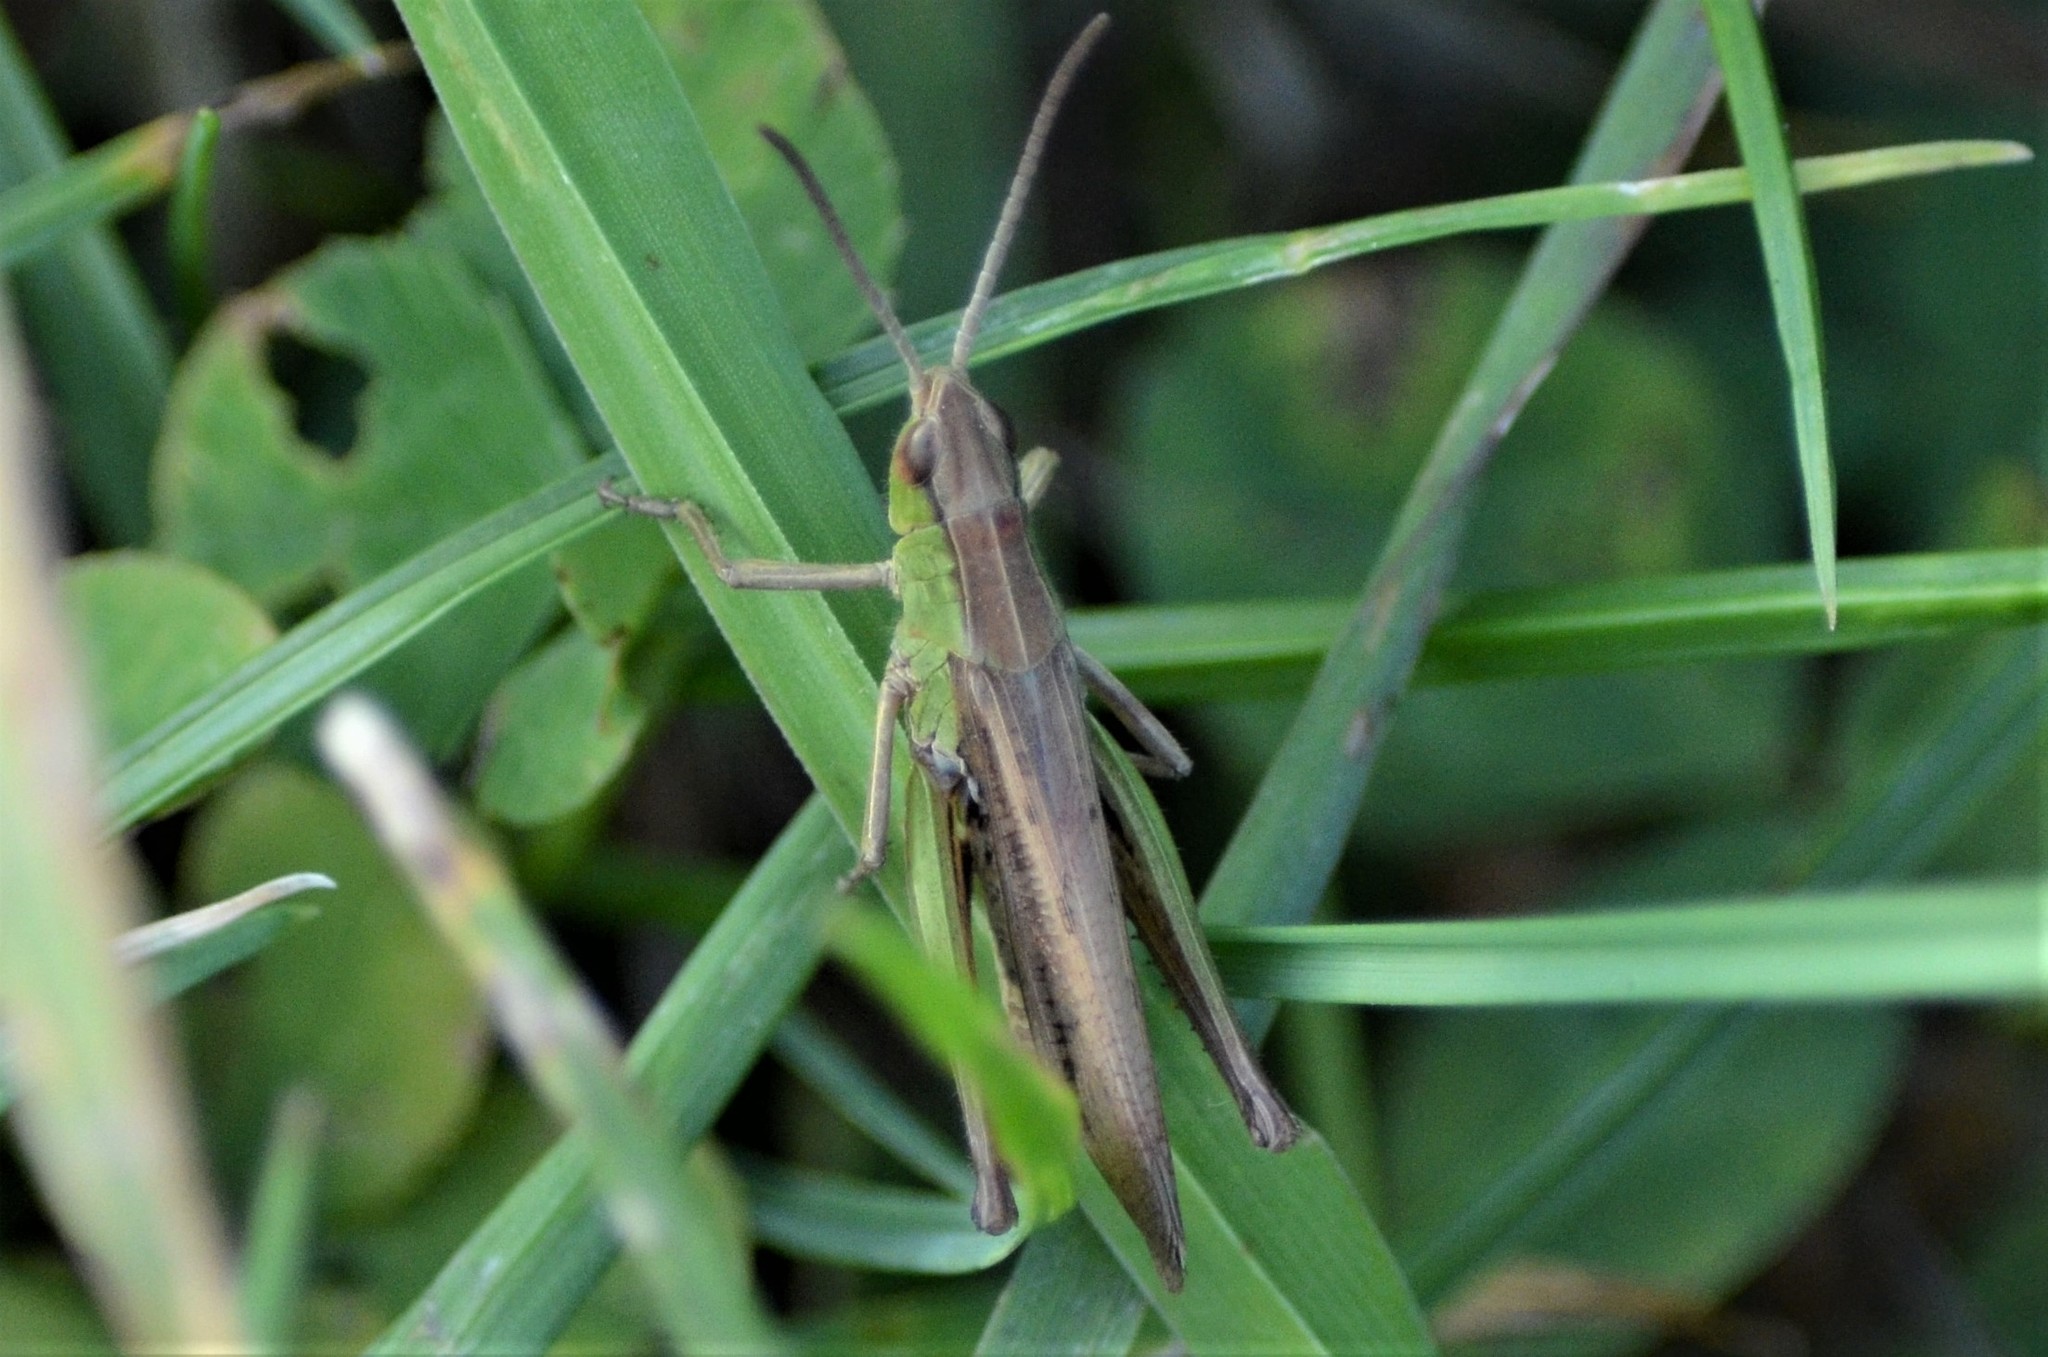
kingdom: Animalia
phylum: Arthropoda
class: Insecta
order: Orthoptera
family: Acrididae
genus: Chorthippus
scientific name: Chorthippus albomarginatus
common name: Lesser marsh grasshopper
